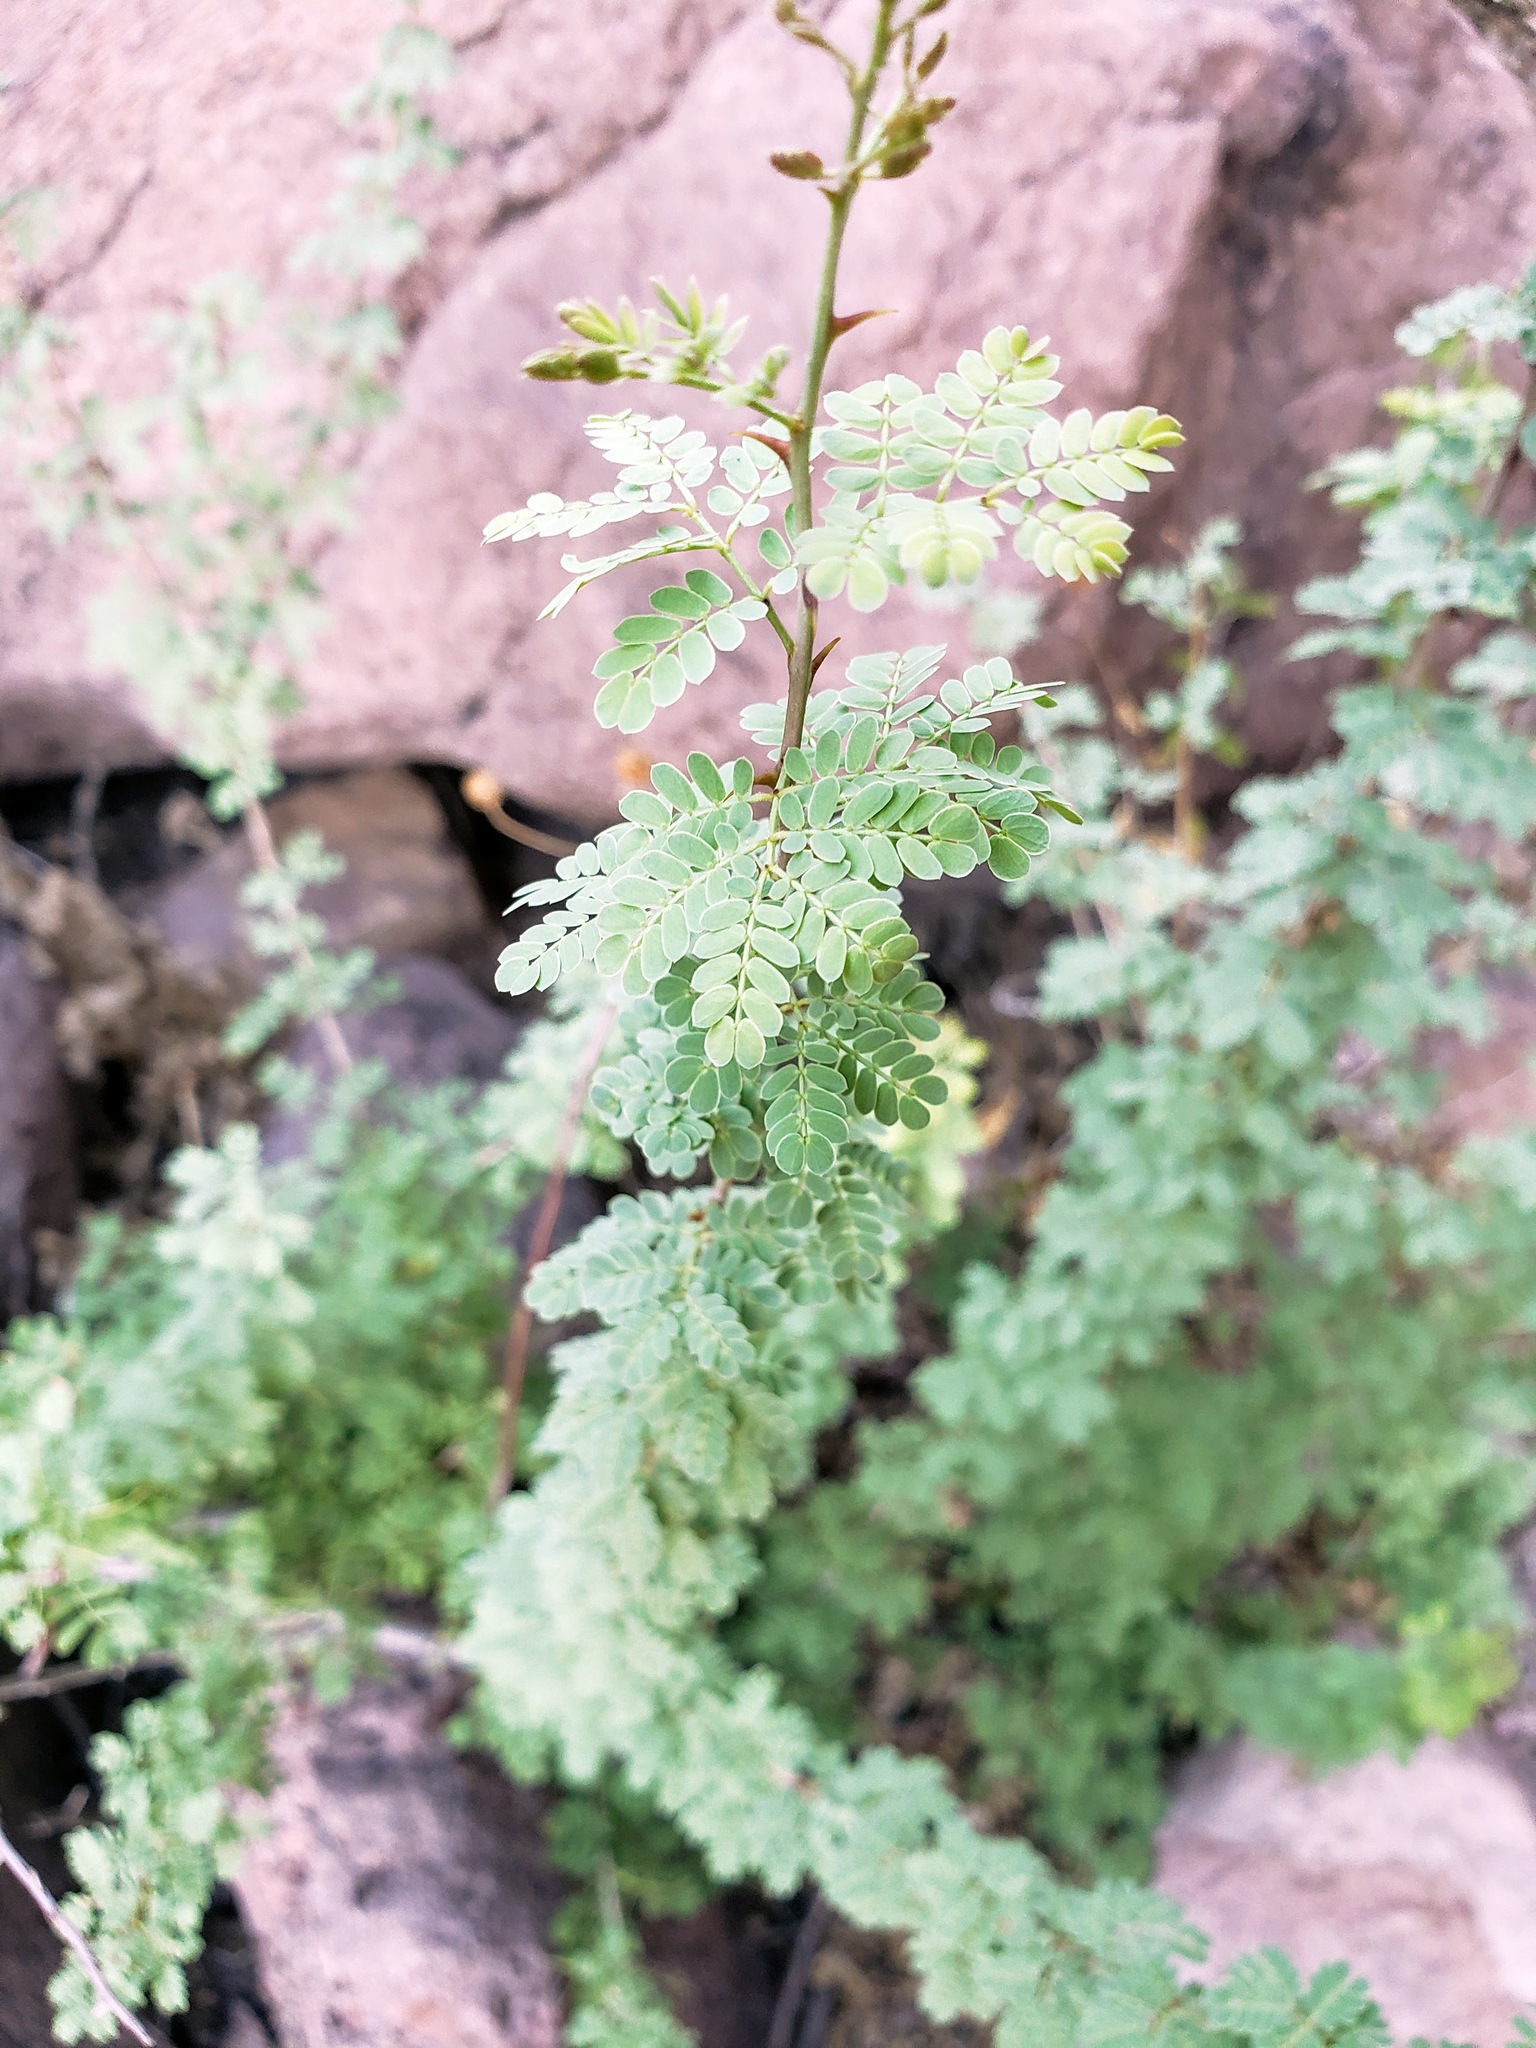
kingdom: Plantae
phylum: Tracheophyta
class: Magnoliopsida
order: Fabales
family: Fabaceae
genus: Senegalia
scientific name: Senegalia greggii
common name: Texas-mimosa
